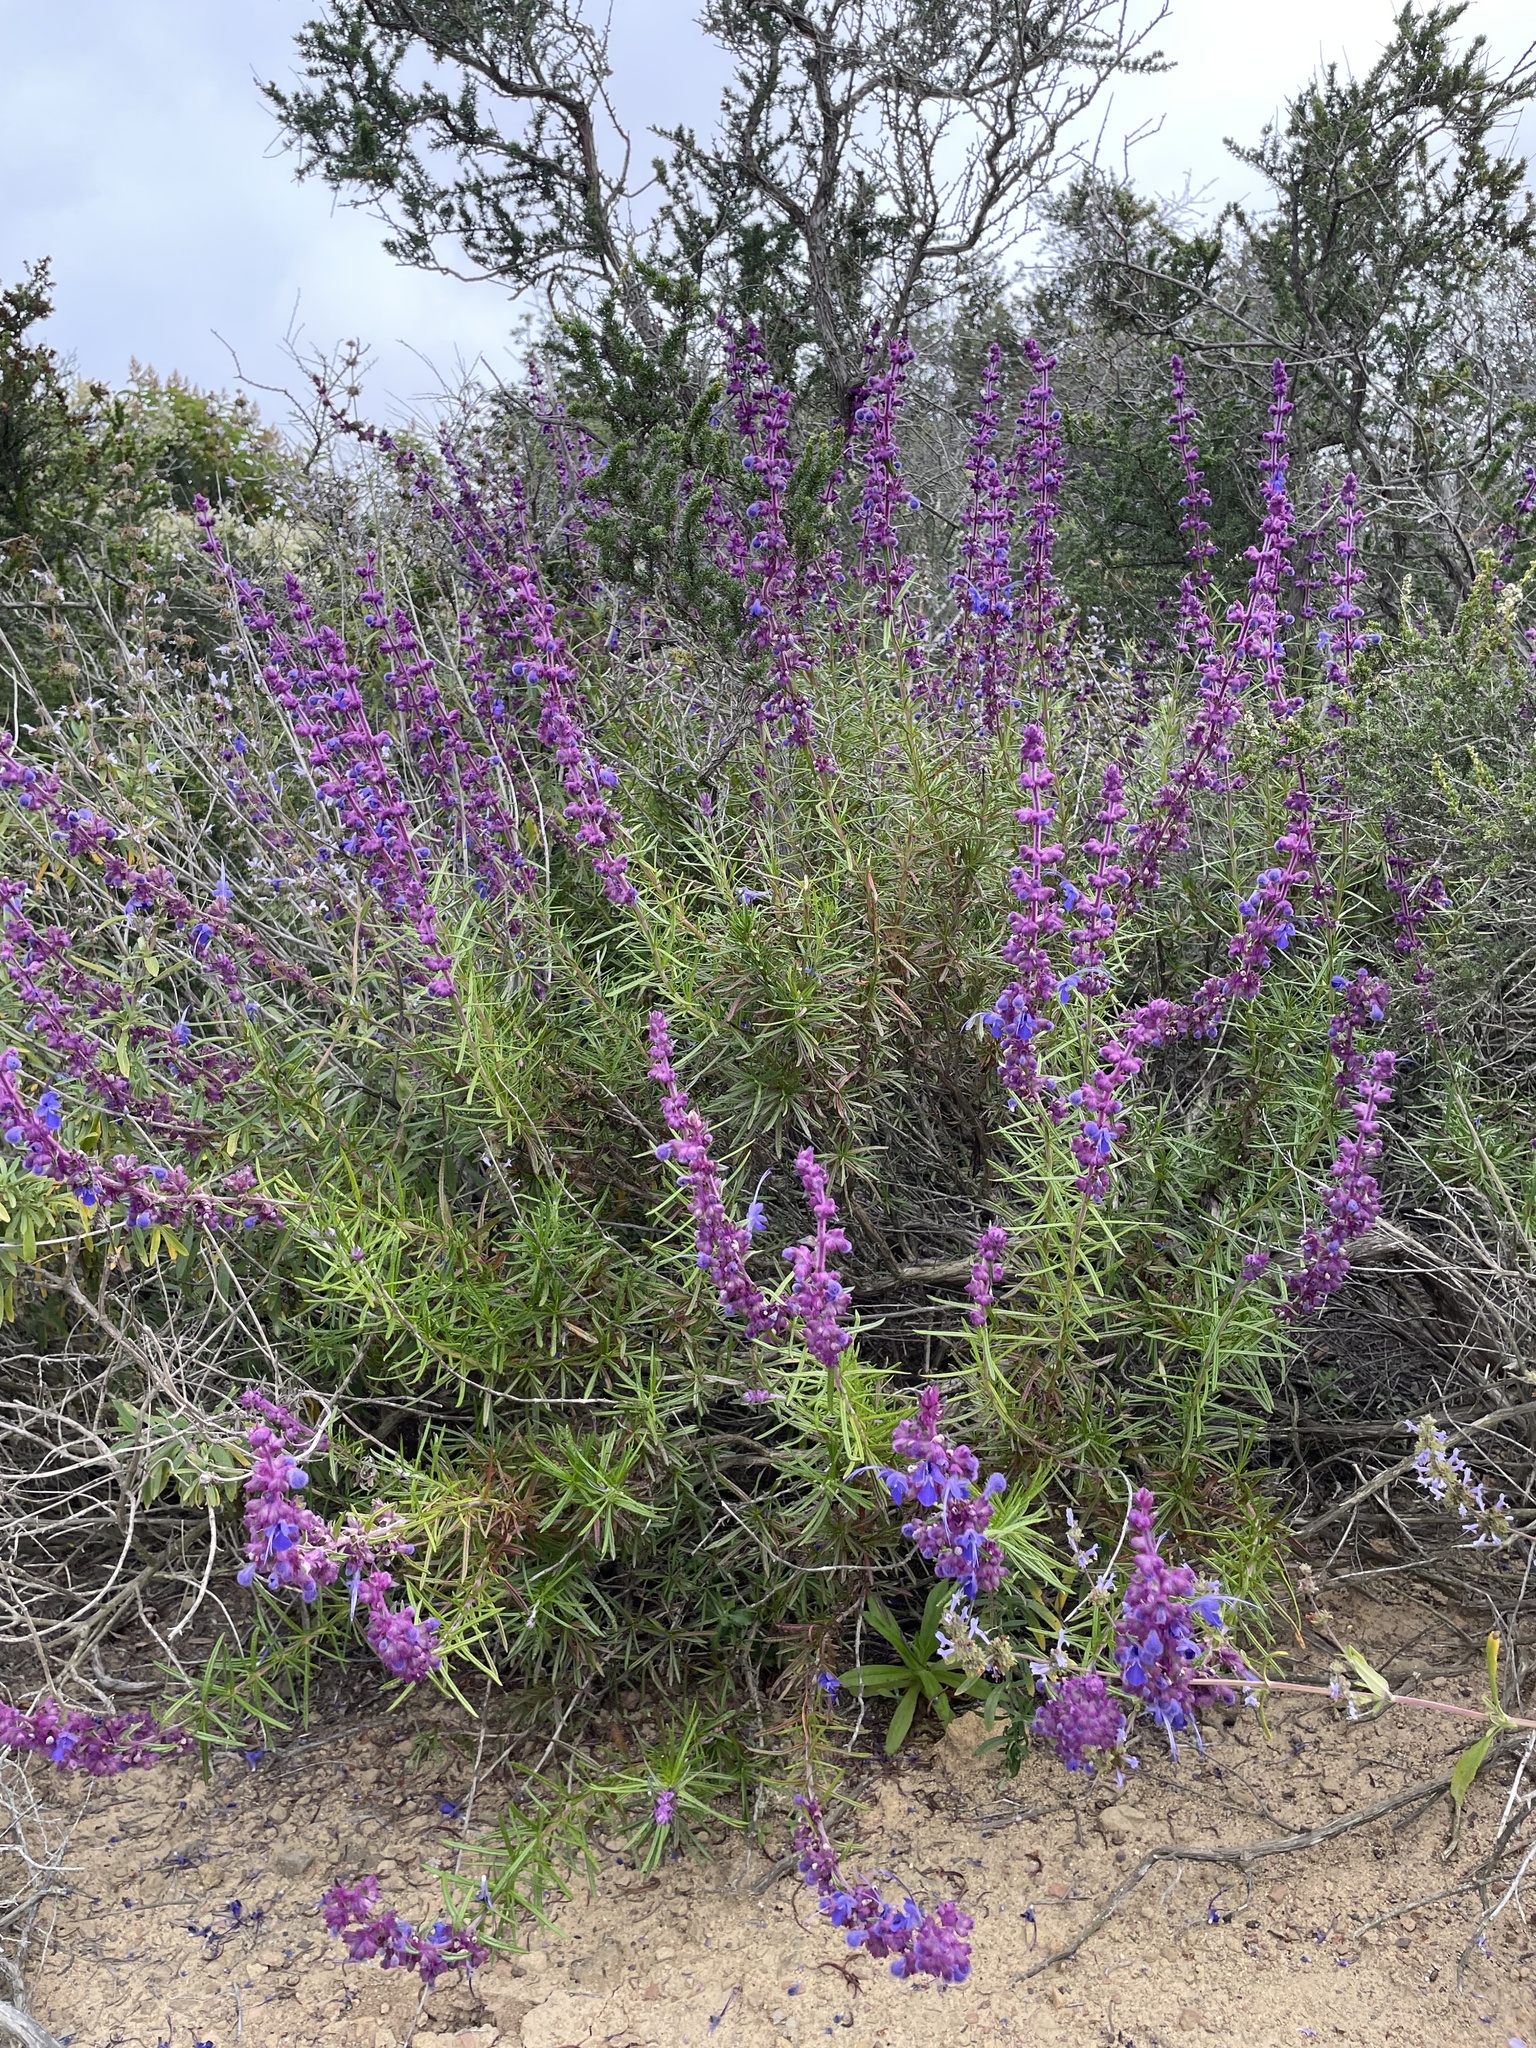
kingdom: Plantae
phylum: Tracheophyta
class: Magnoliopsida
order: Lamiales
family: Lamiaceae
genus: Trichostema
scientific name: Trichostema lanatum
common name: Woolly bluecurls
